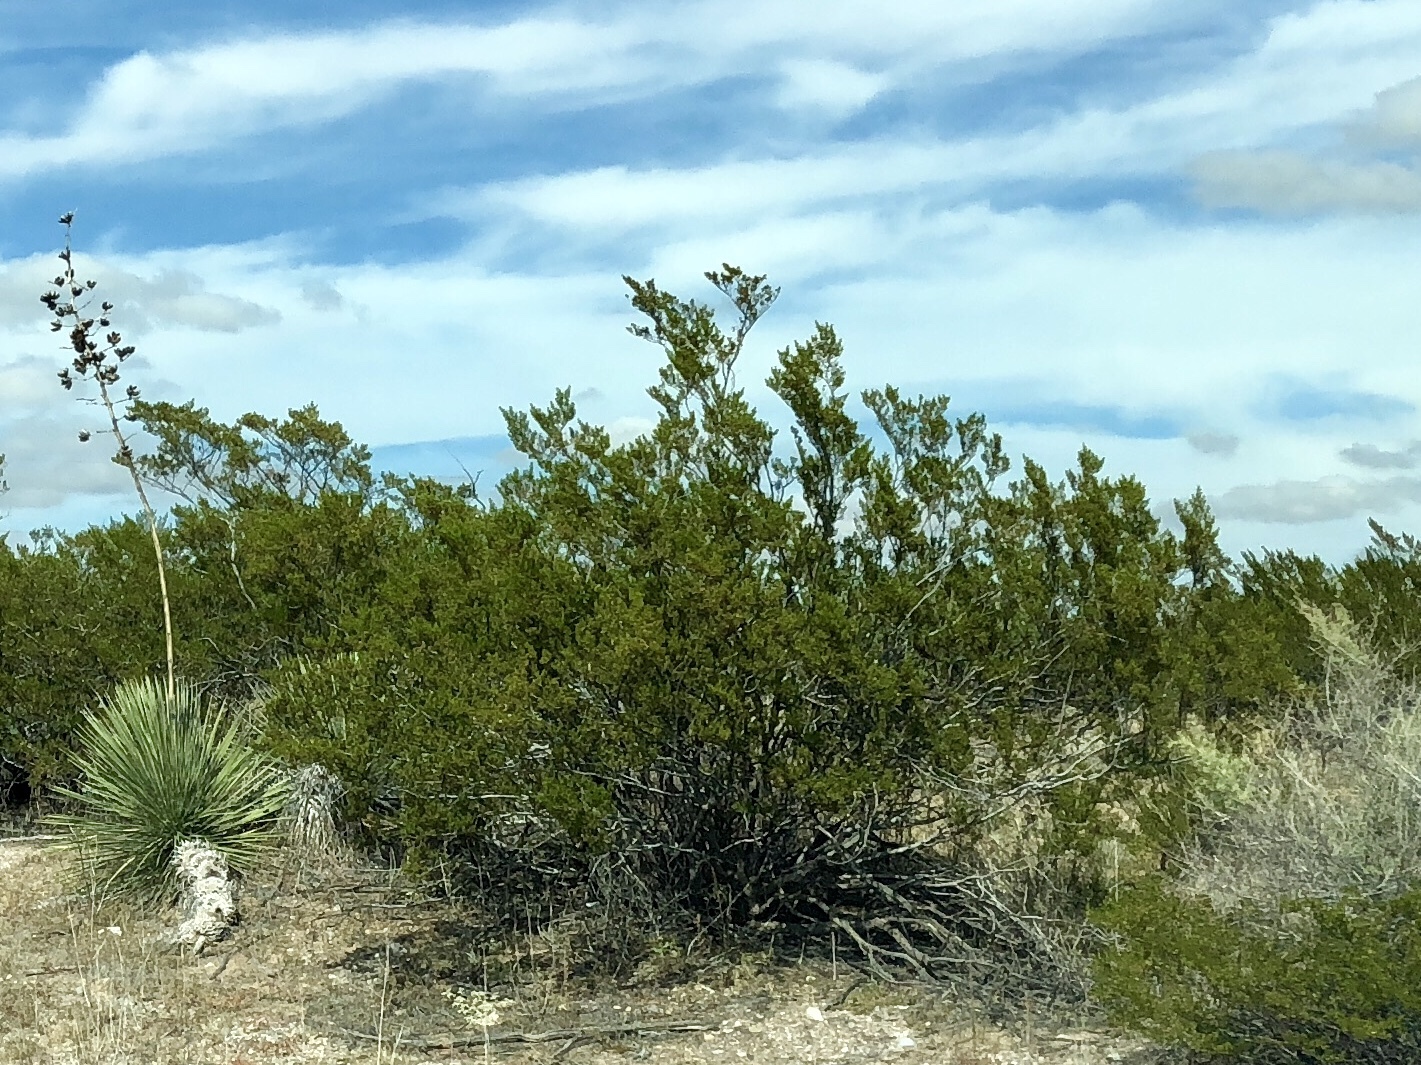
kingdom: Plantae
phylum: Tracheophyta
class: Magnoliopsida
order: Zygophyllales
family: Zygophyllaceae
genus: Larrea
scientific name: Larrea tridentata
